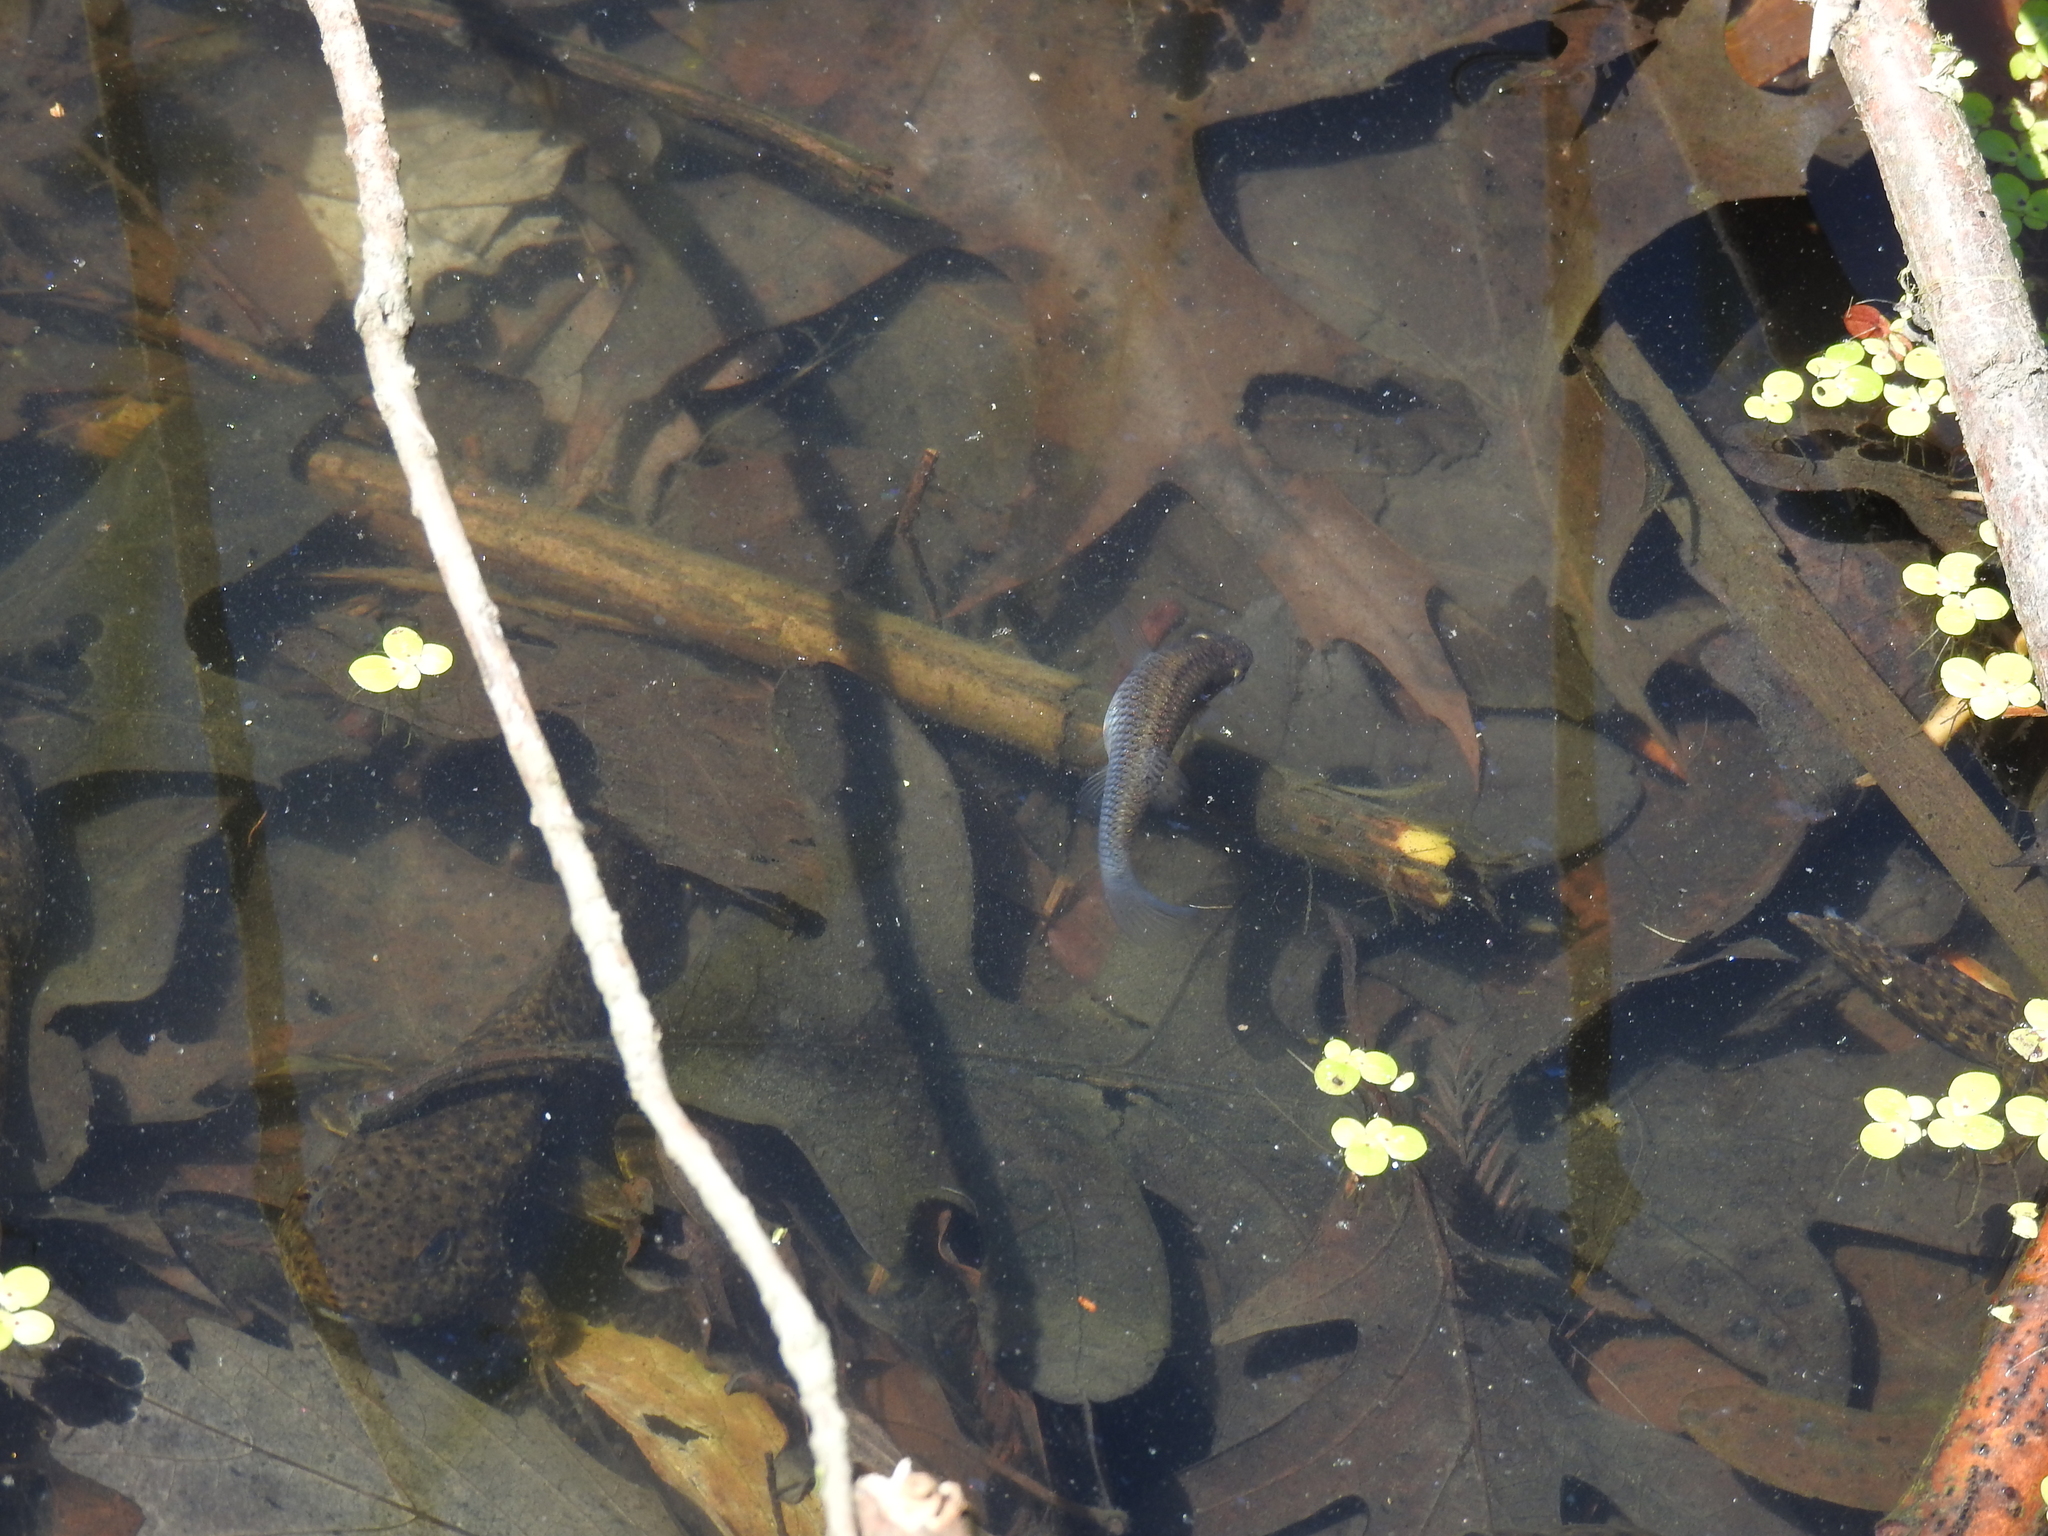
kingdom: Animalia
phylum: Chordata
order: Cyprinodontiformes
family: Poeciliidae
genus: Gambusia
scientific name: Gambusia affinis
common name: Mosquitofish
